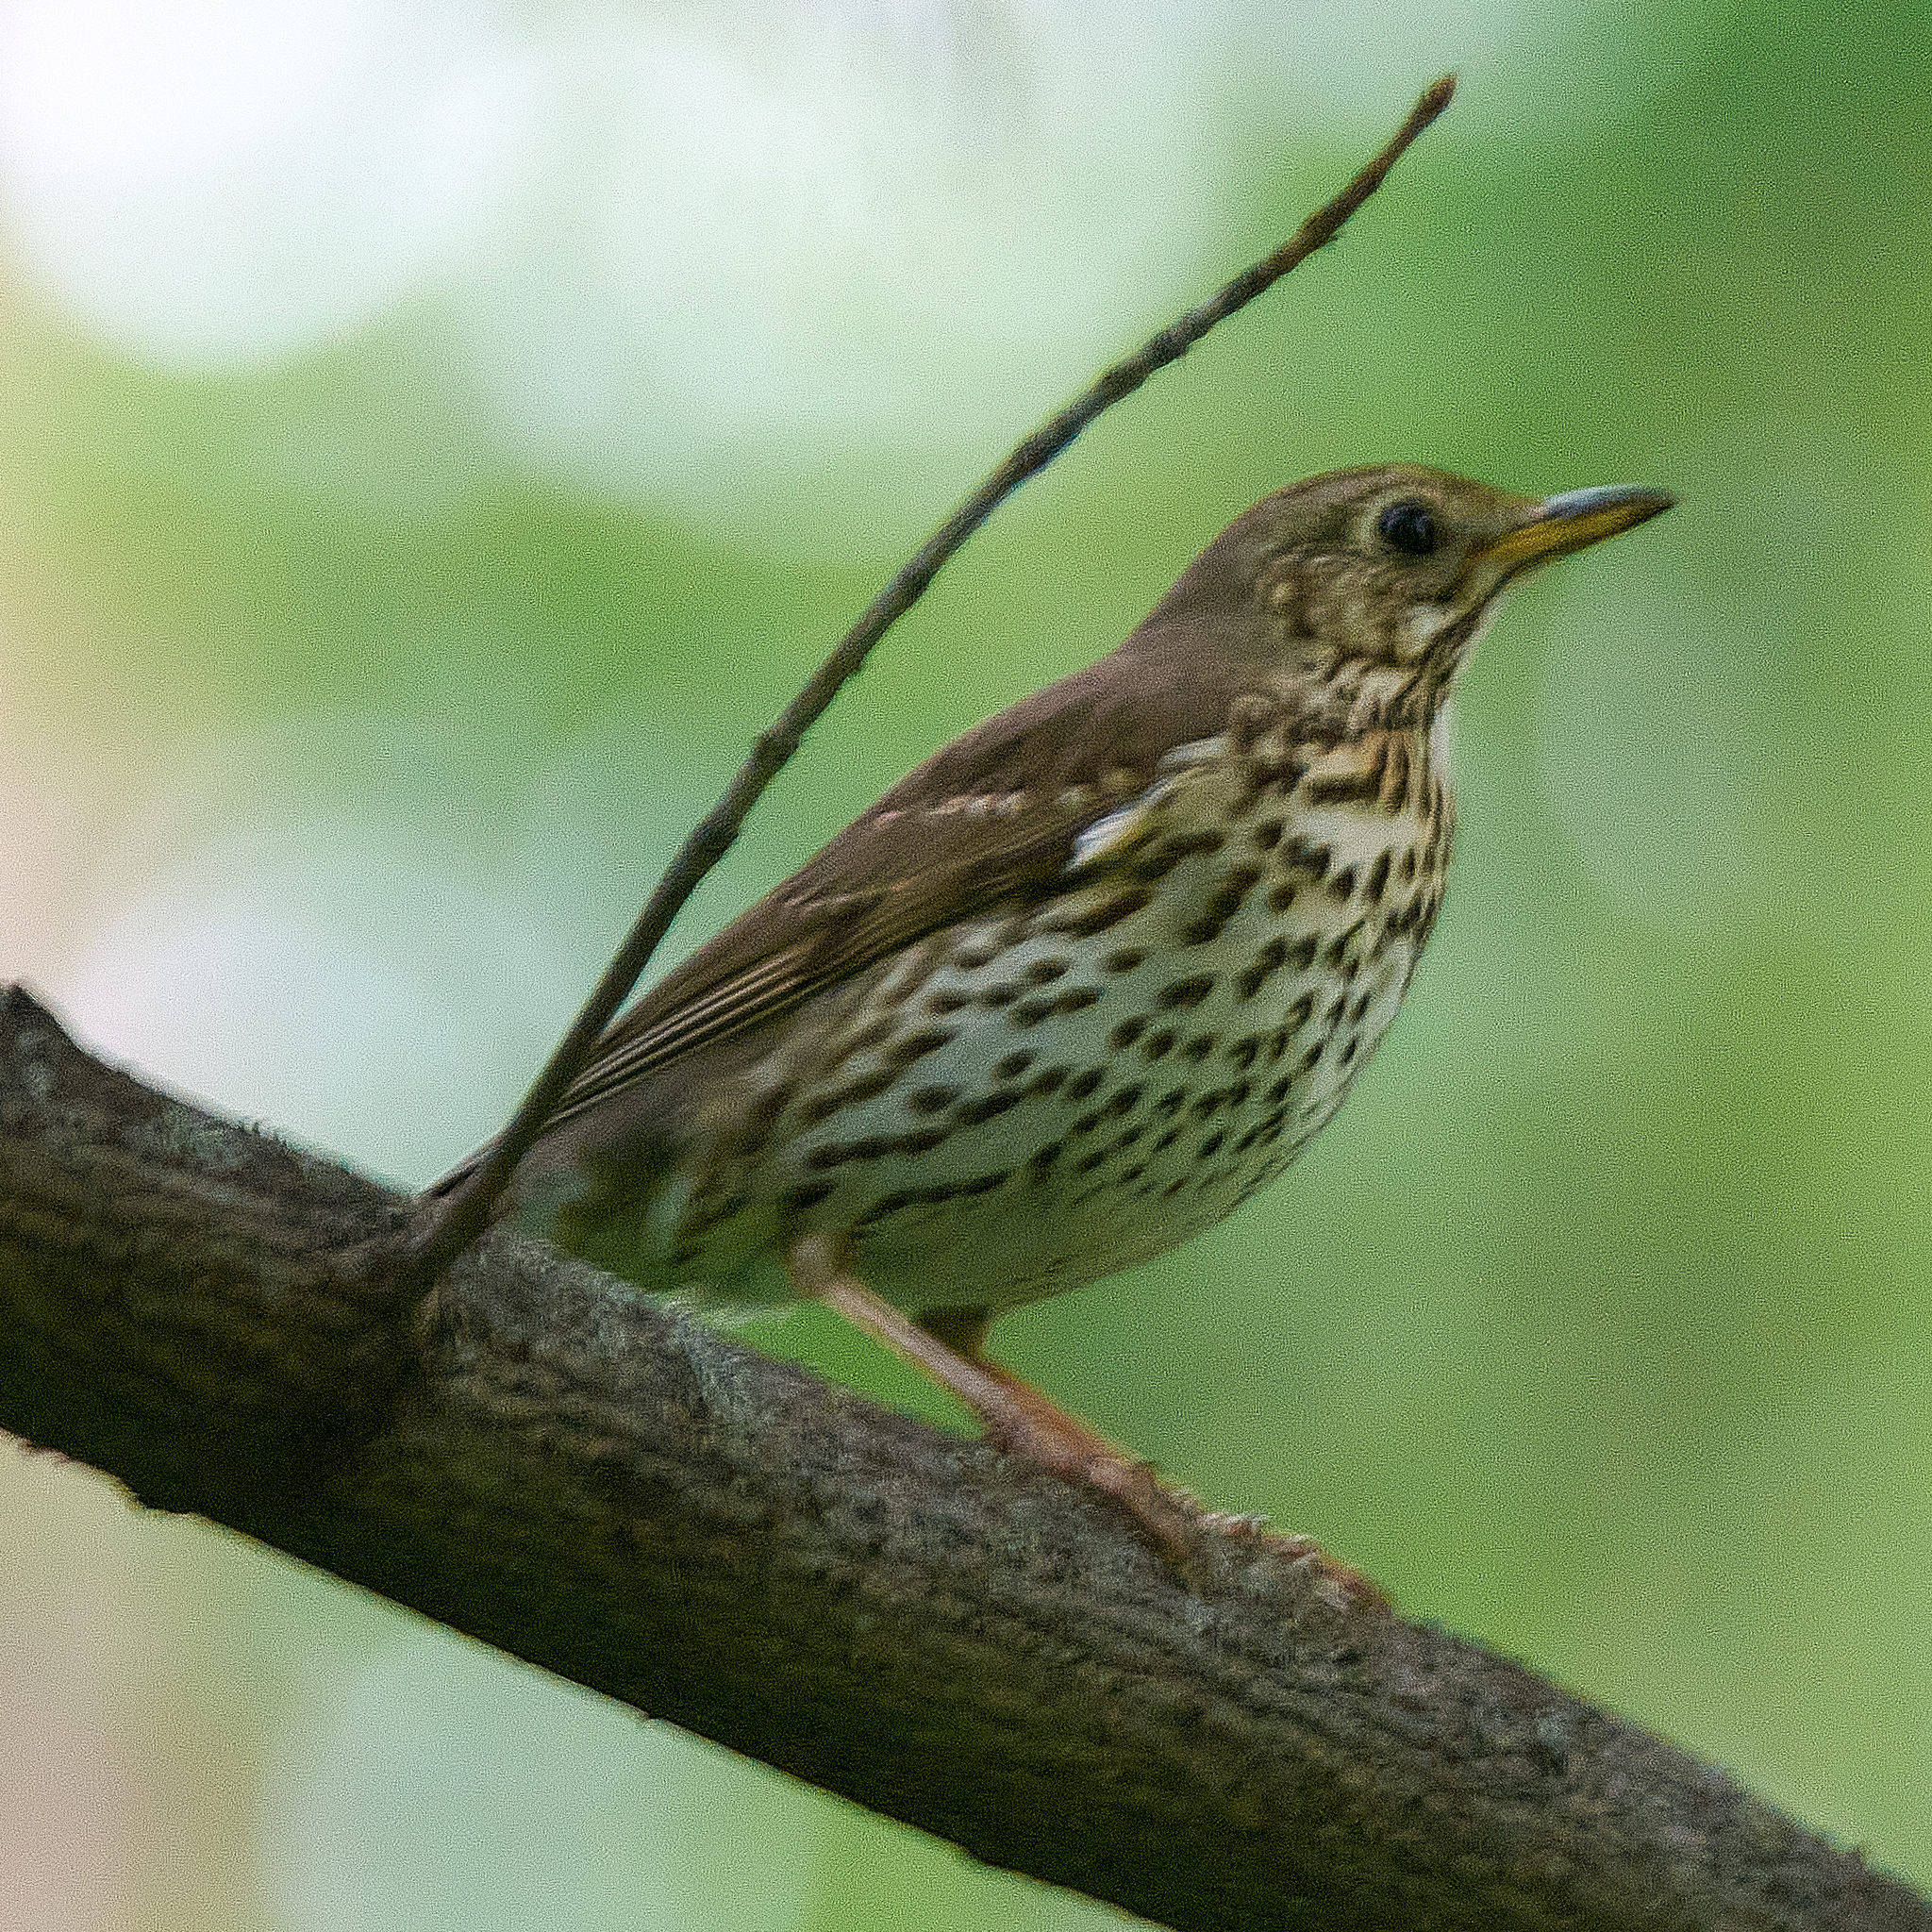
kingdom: Animalia
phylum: Chordata
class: Aves
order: Passeriformes
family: Turdidae
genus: Turdus
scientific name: Turdus philomelos
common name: Song thrush
